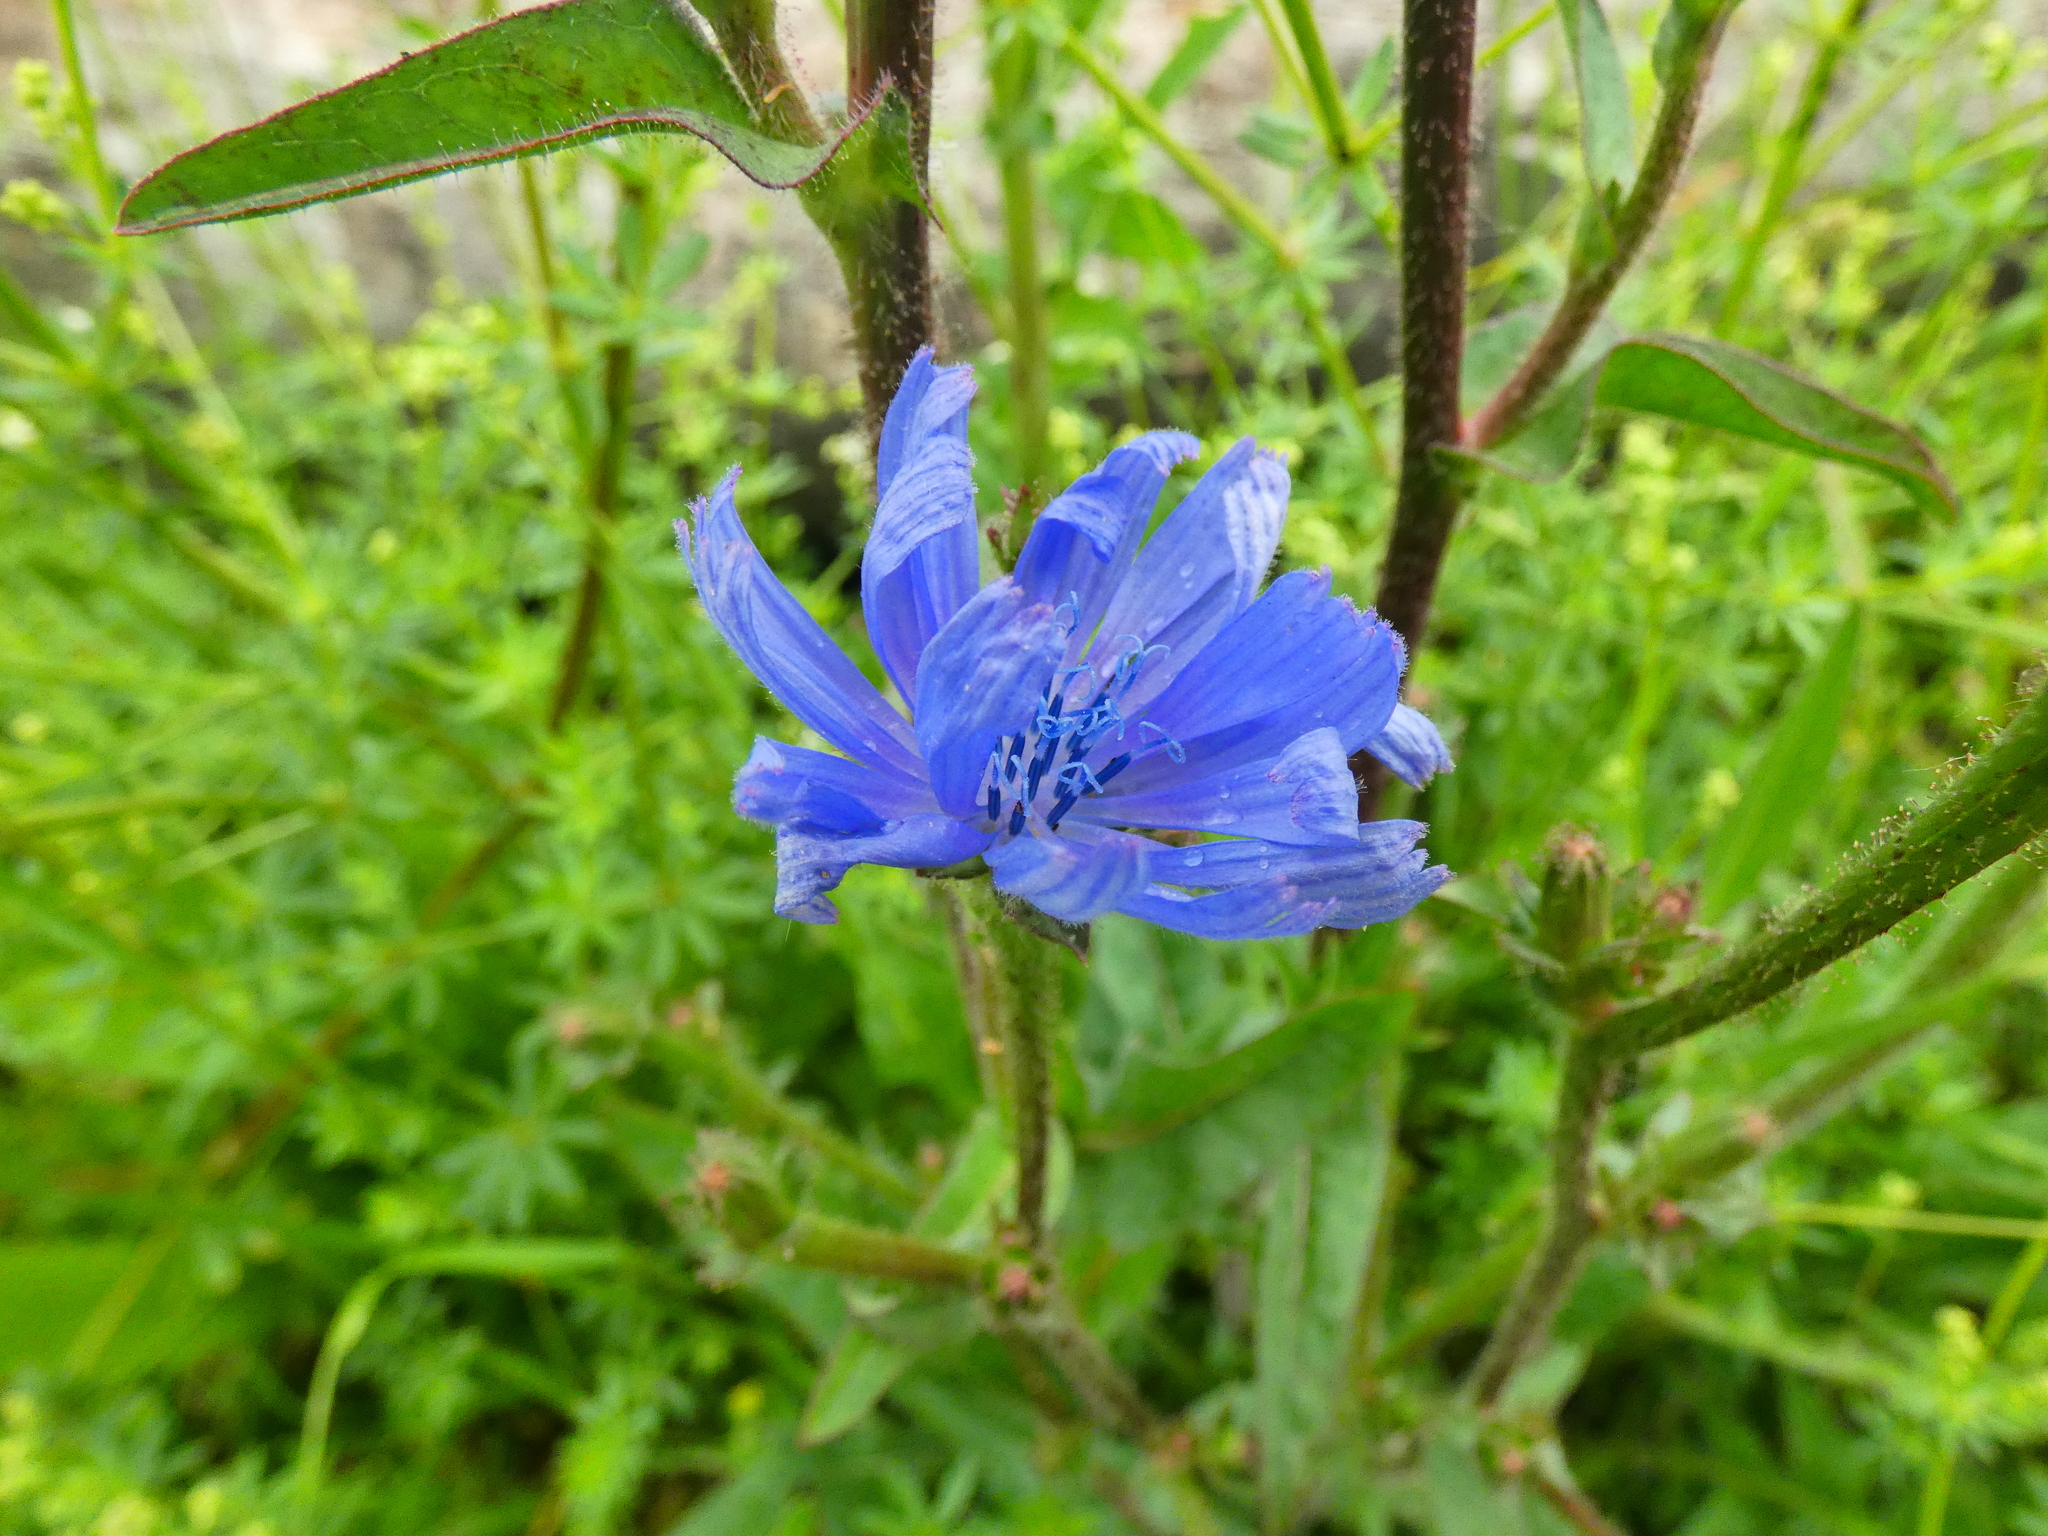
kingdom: Plantae
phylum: Tracheophyta
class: Magnoliopsida
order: Asterales
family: Asteraceae
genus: Cichorium
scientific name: Cichorium intybus
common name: Chicory
